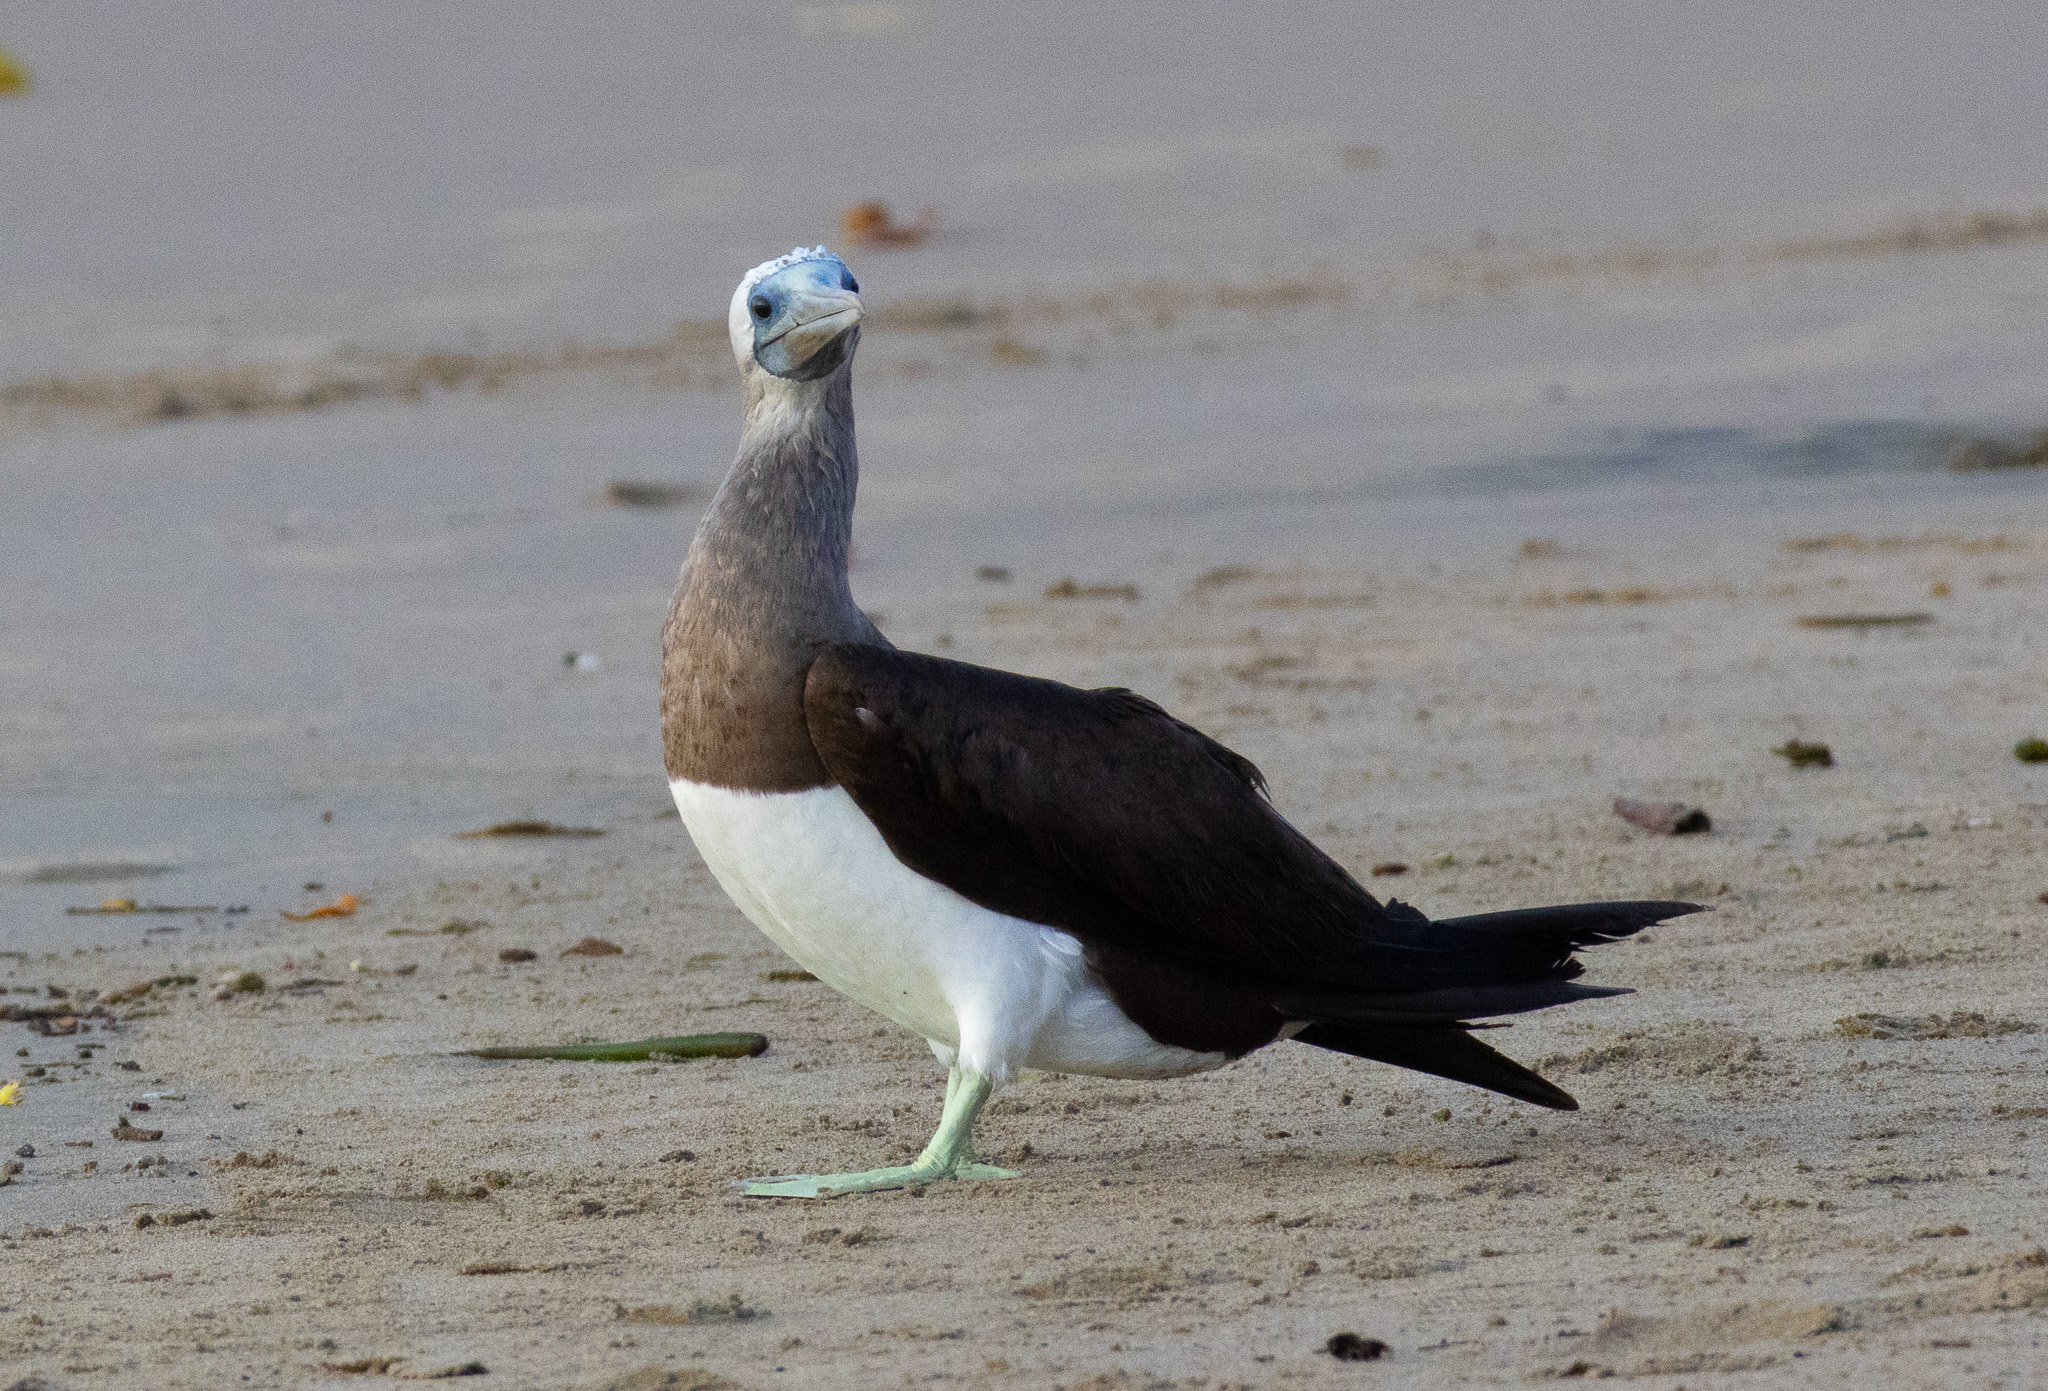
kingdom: Animalia
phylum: Chordata
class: Aves
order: Suliformes
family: Sulidae
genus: Sula
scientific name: Sula leucogaster
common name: Brown booby
